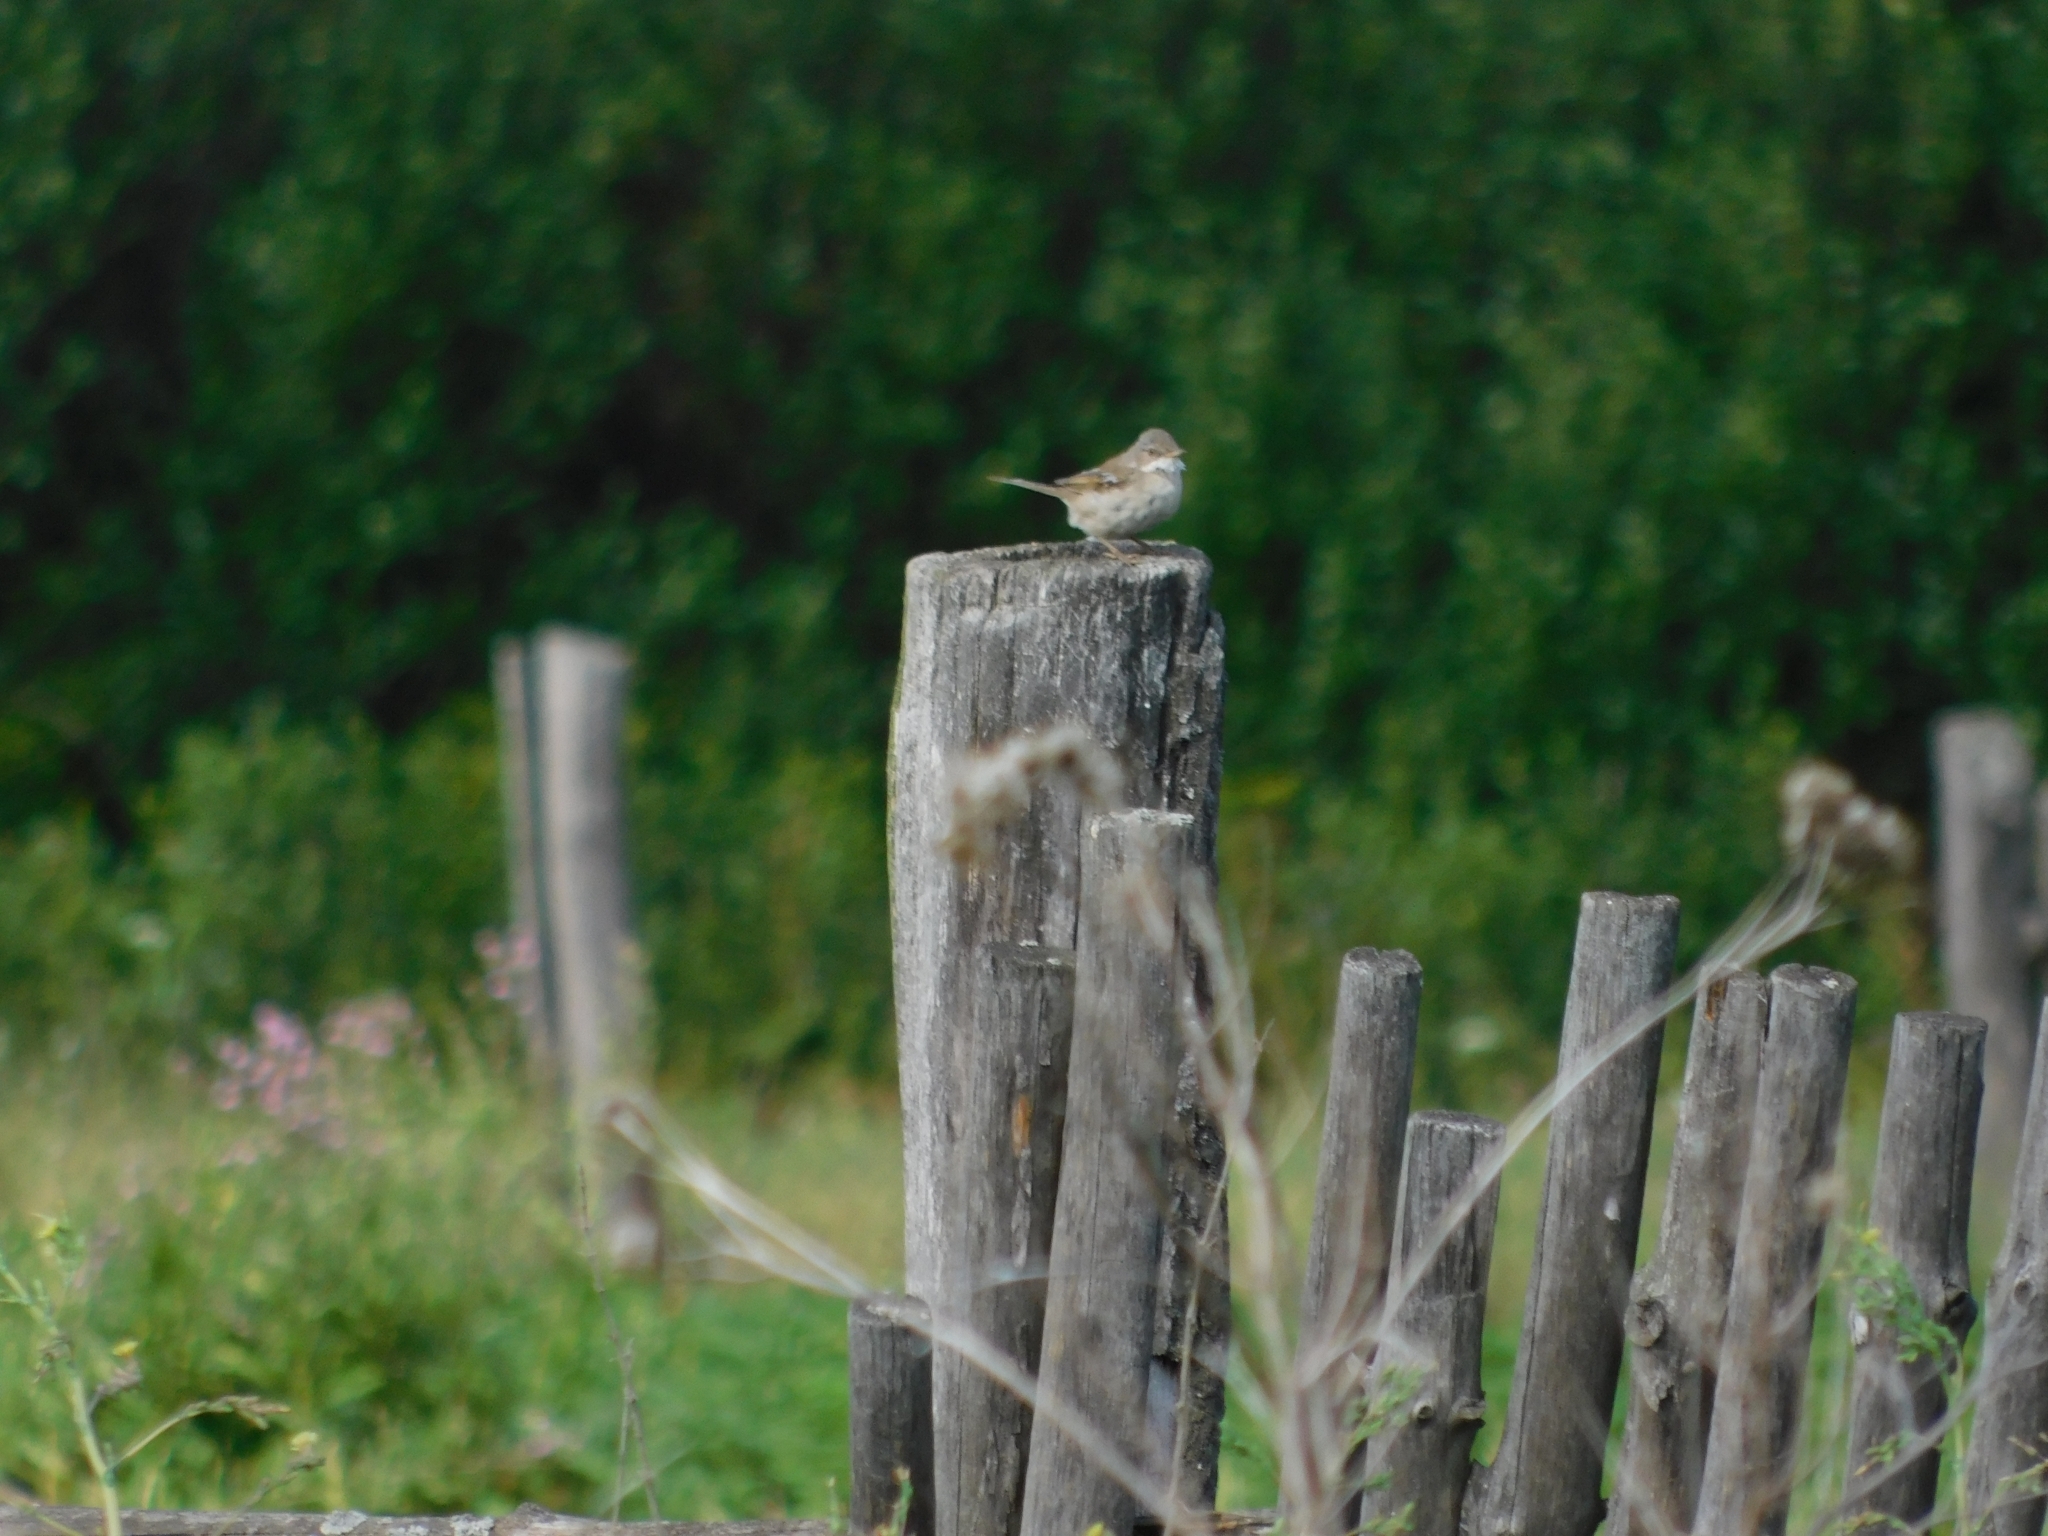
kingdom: Animalia
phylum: Chordata
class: Aves
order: Passeriformes
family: Sylviidae
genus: Sylvia
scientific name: Sylvia communis
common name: Common whitethroat
